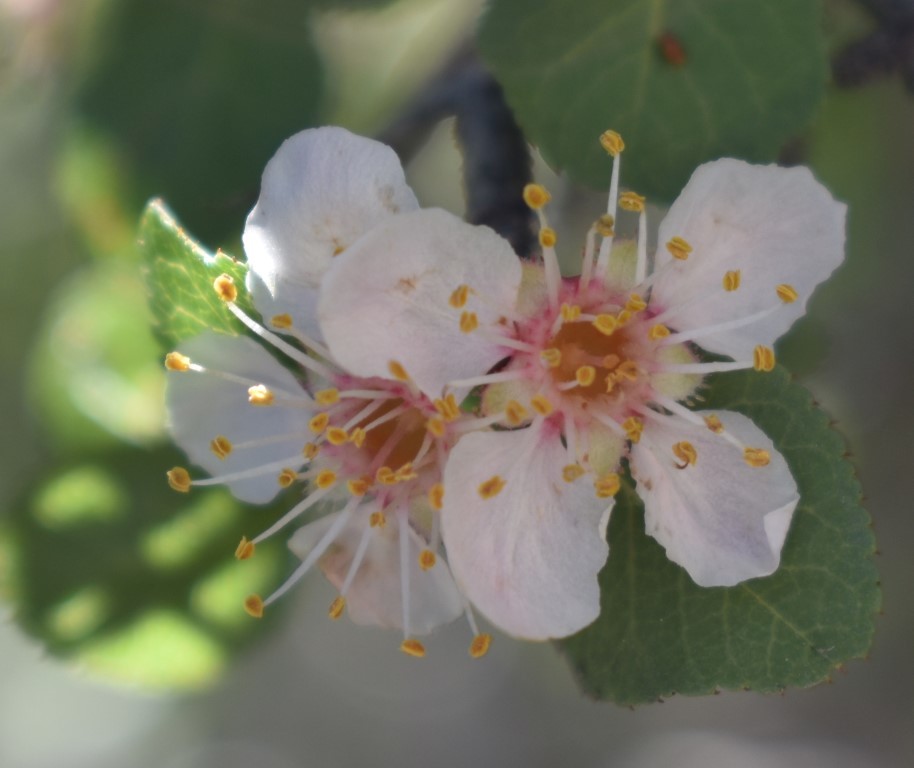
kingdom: Plantae
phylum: Tracheophyta
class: Magnoliopsida
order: Rosales
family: Rosaceae
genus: Prunus
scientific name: Prunus fremontii
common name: Desert apricot
